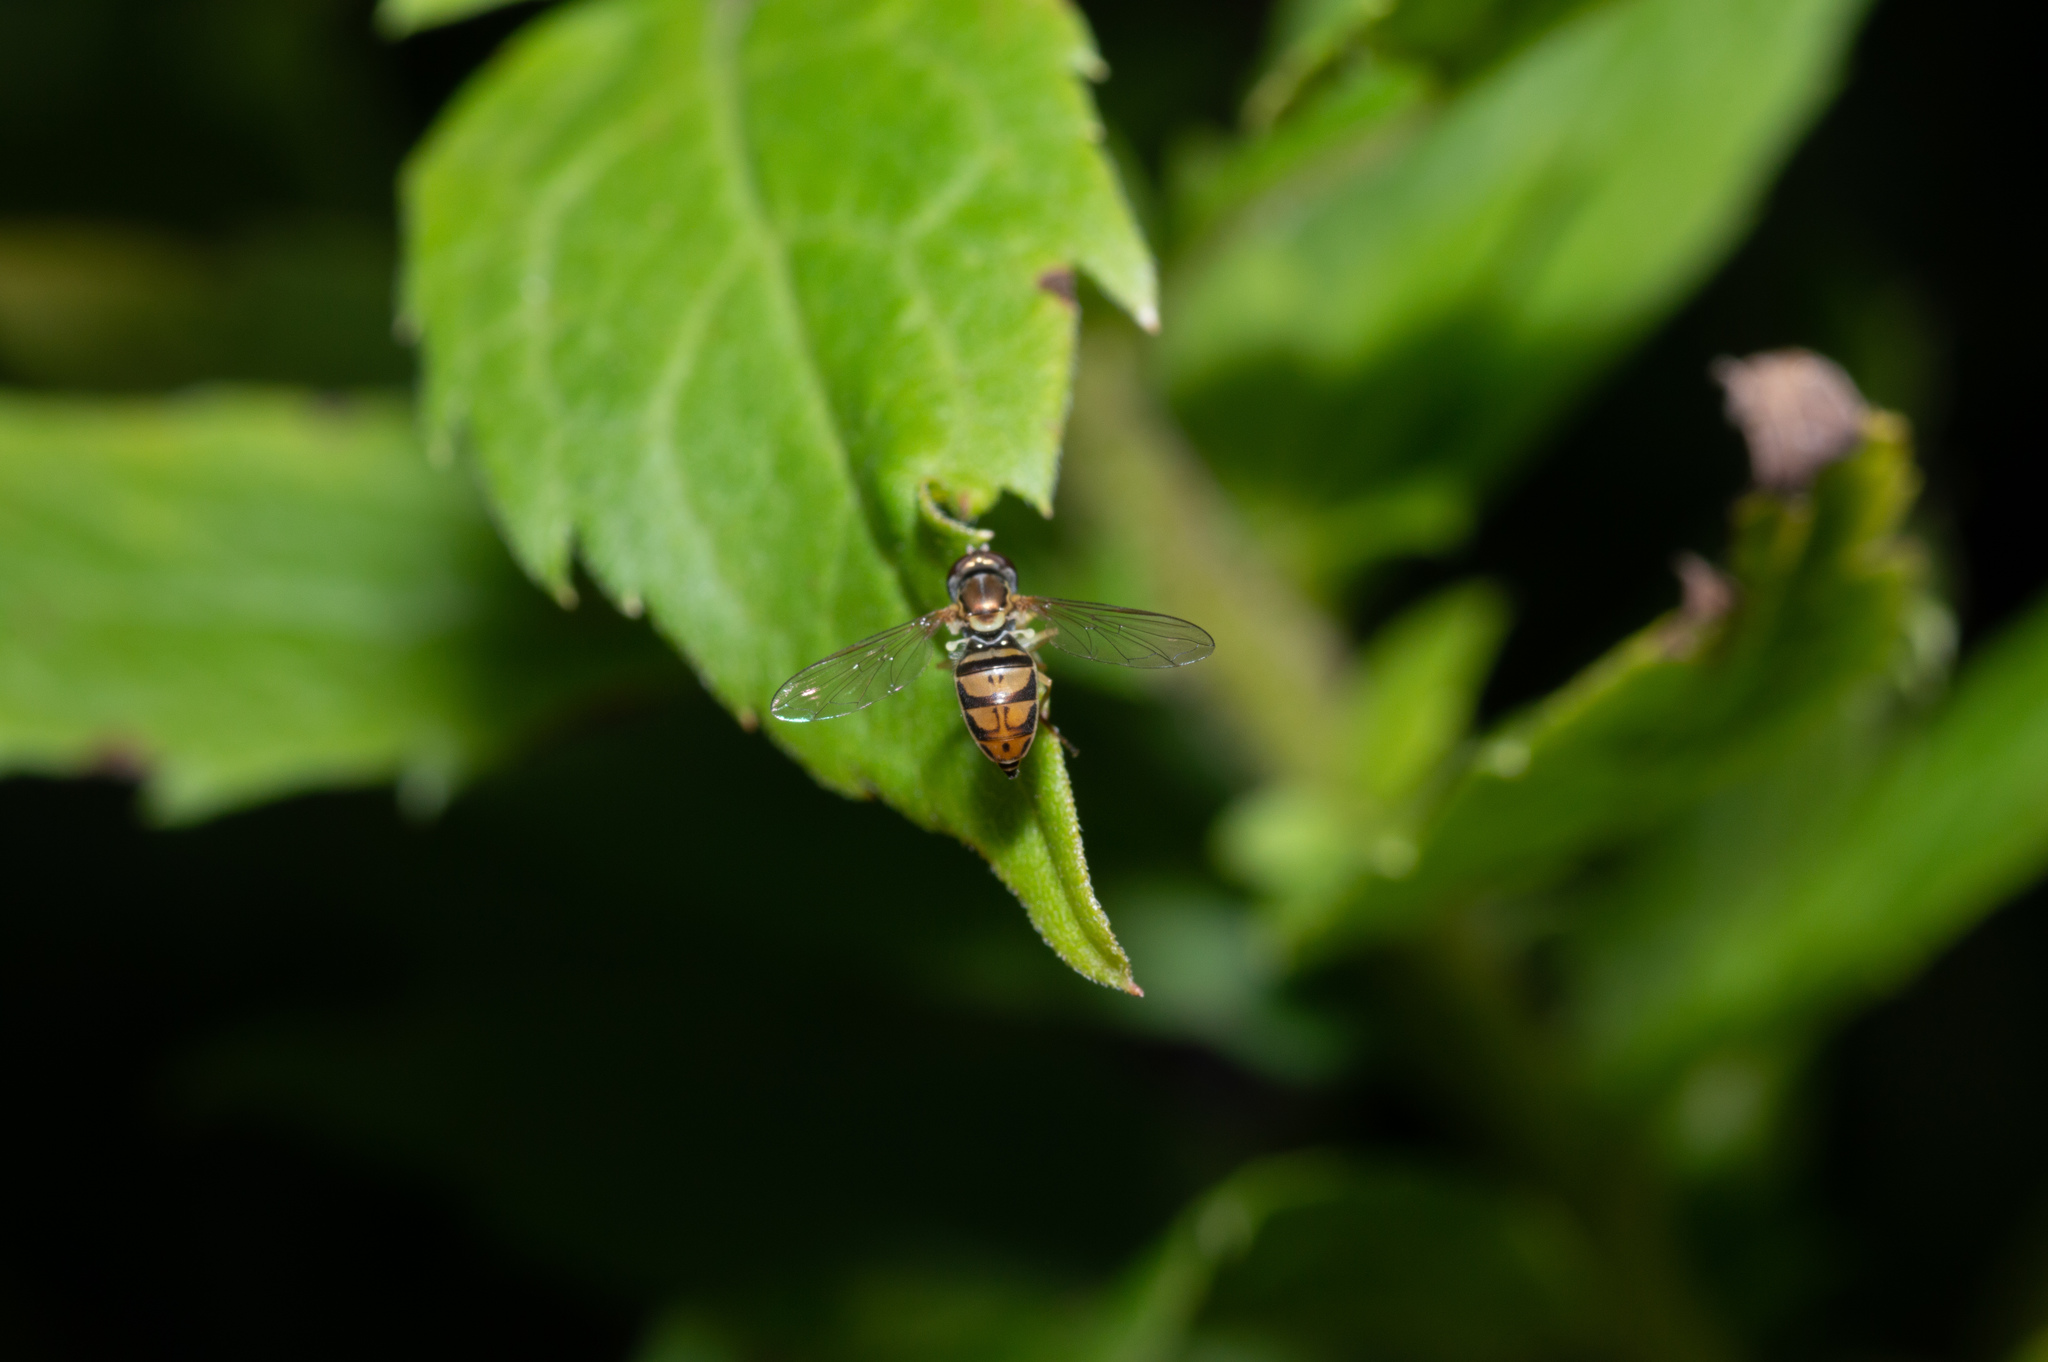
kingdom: Animalia
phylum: Arthropoda
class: Insecta
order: Diptera
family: Syrphidae
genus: Toxomerus
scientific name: Toxomerus marginatus
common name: Syrphid fly
